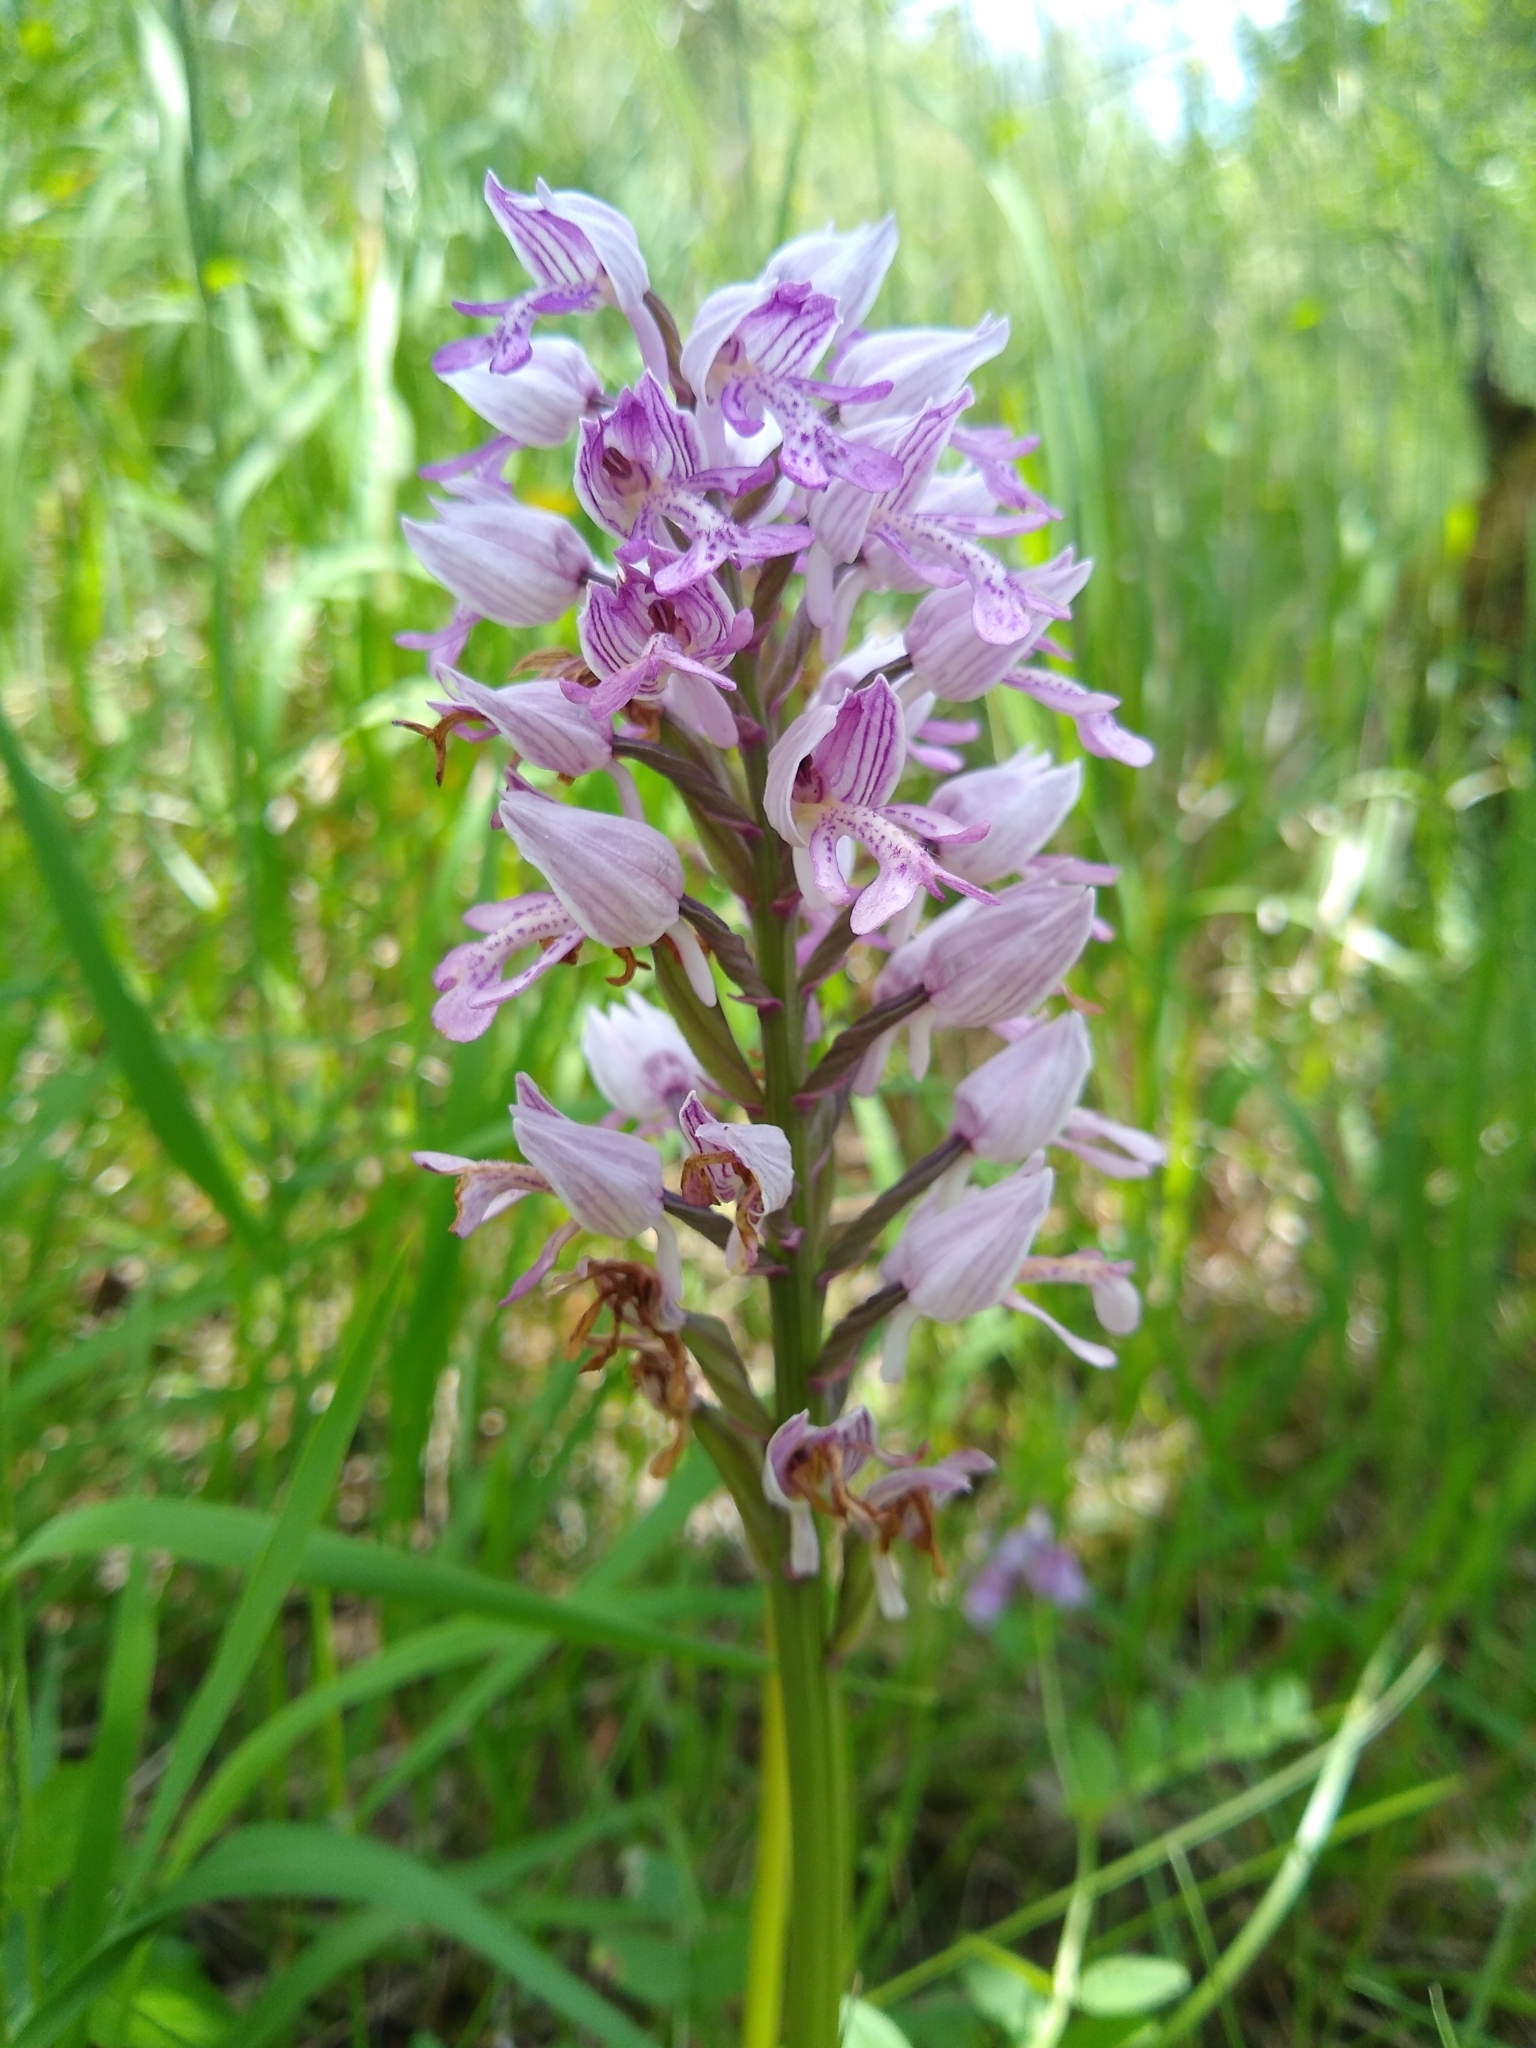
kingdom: Plantae
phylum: Tracheophyta
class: Liliopsida
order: Asparagales
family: Orchidaceae
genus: Orchis
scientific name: Orchis militaris
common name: Military orchid
